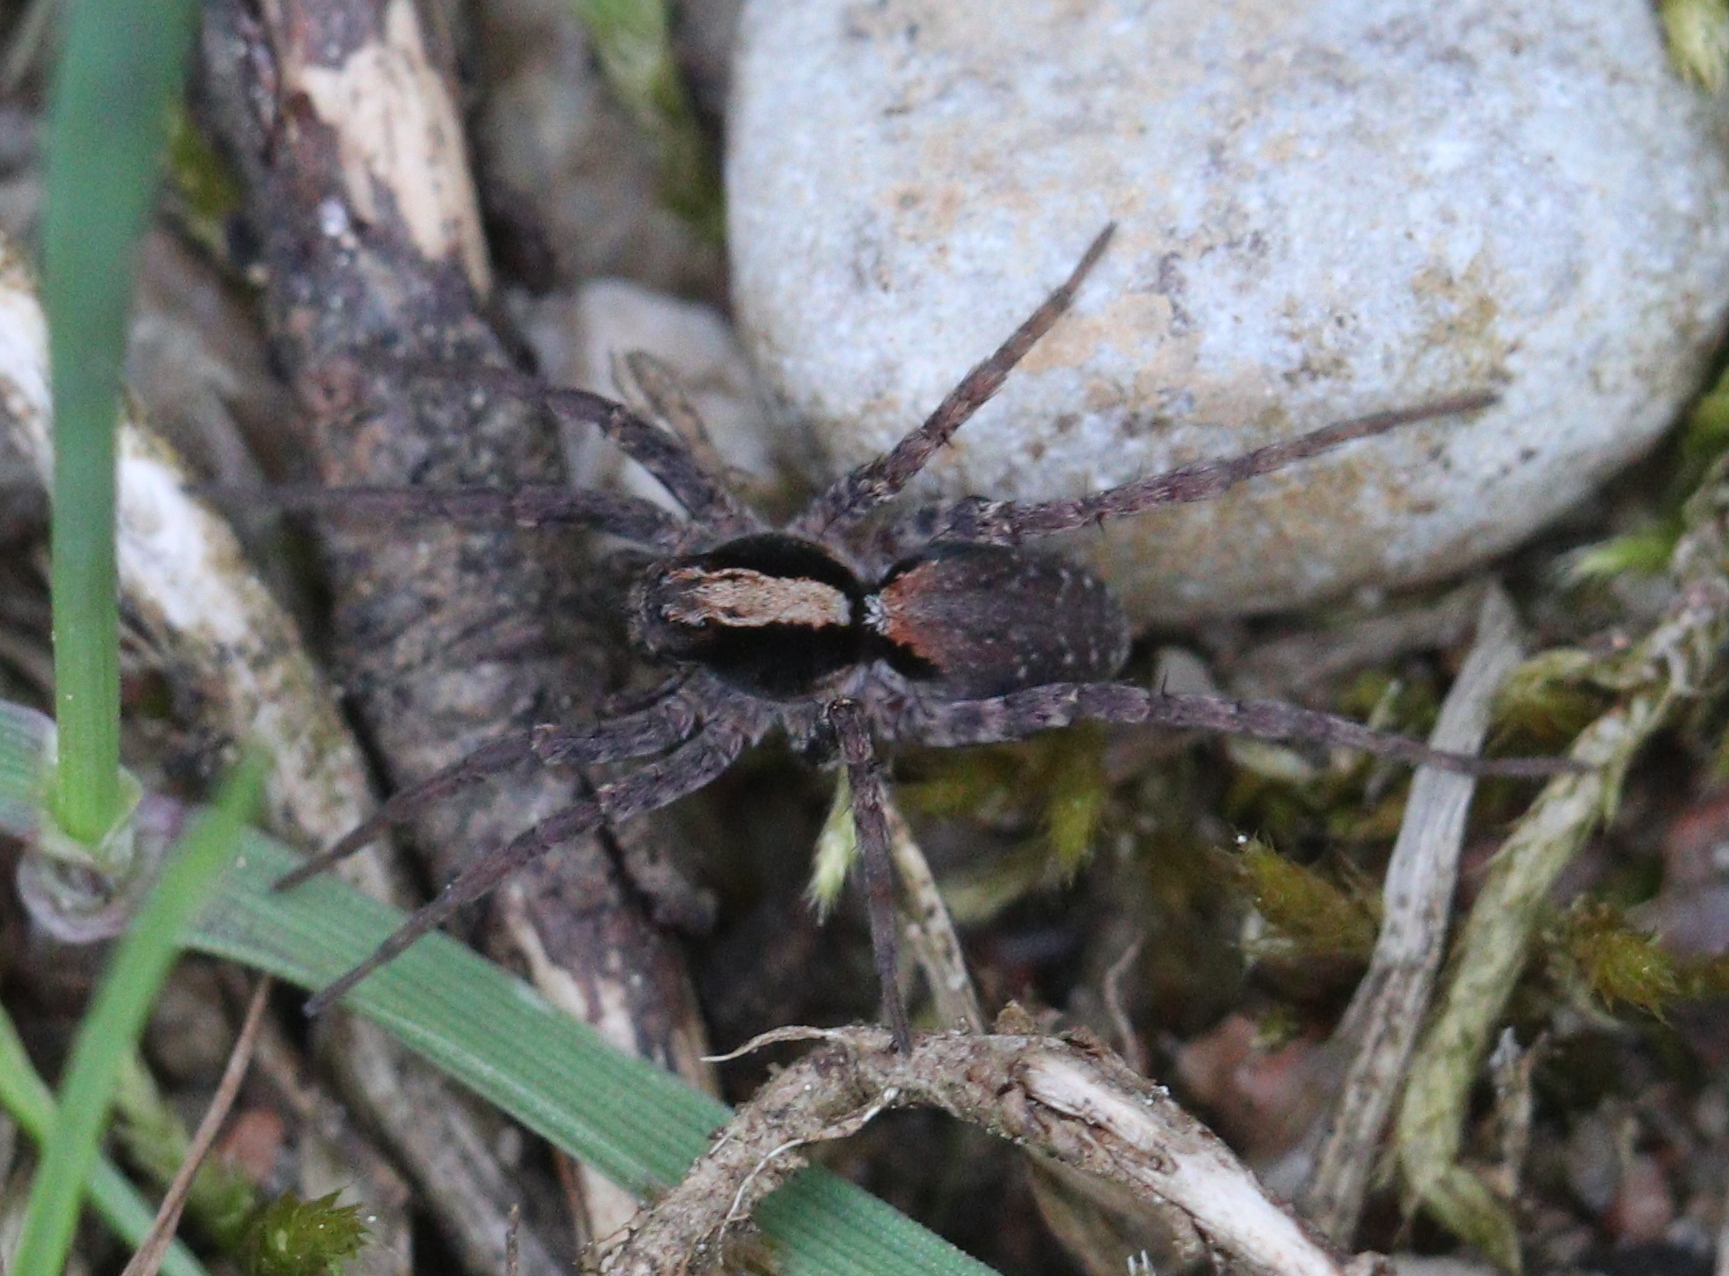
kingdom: Animalia
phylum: Arthropoda
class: Arachnida
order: Araneae
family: Lycosidae
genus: Xerolycosa
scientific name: Xerolycosa nemoralis
